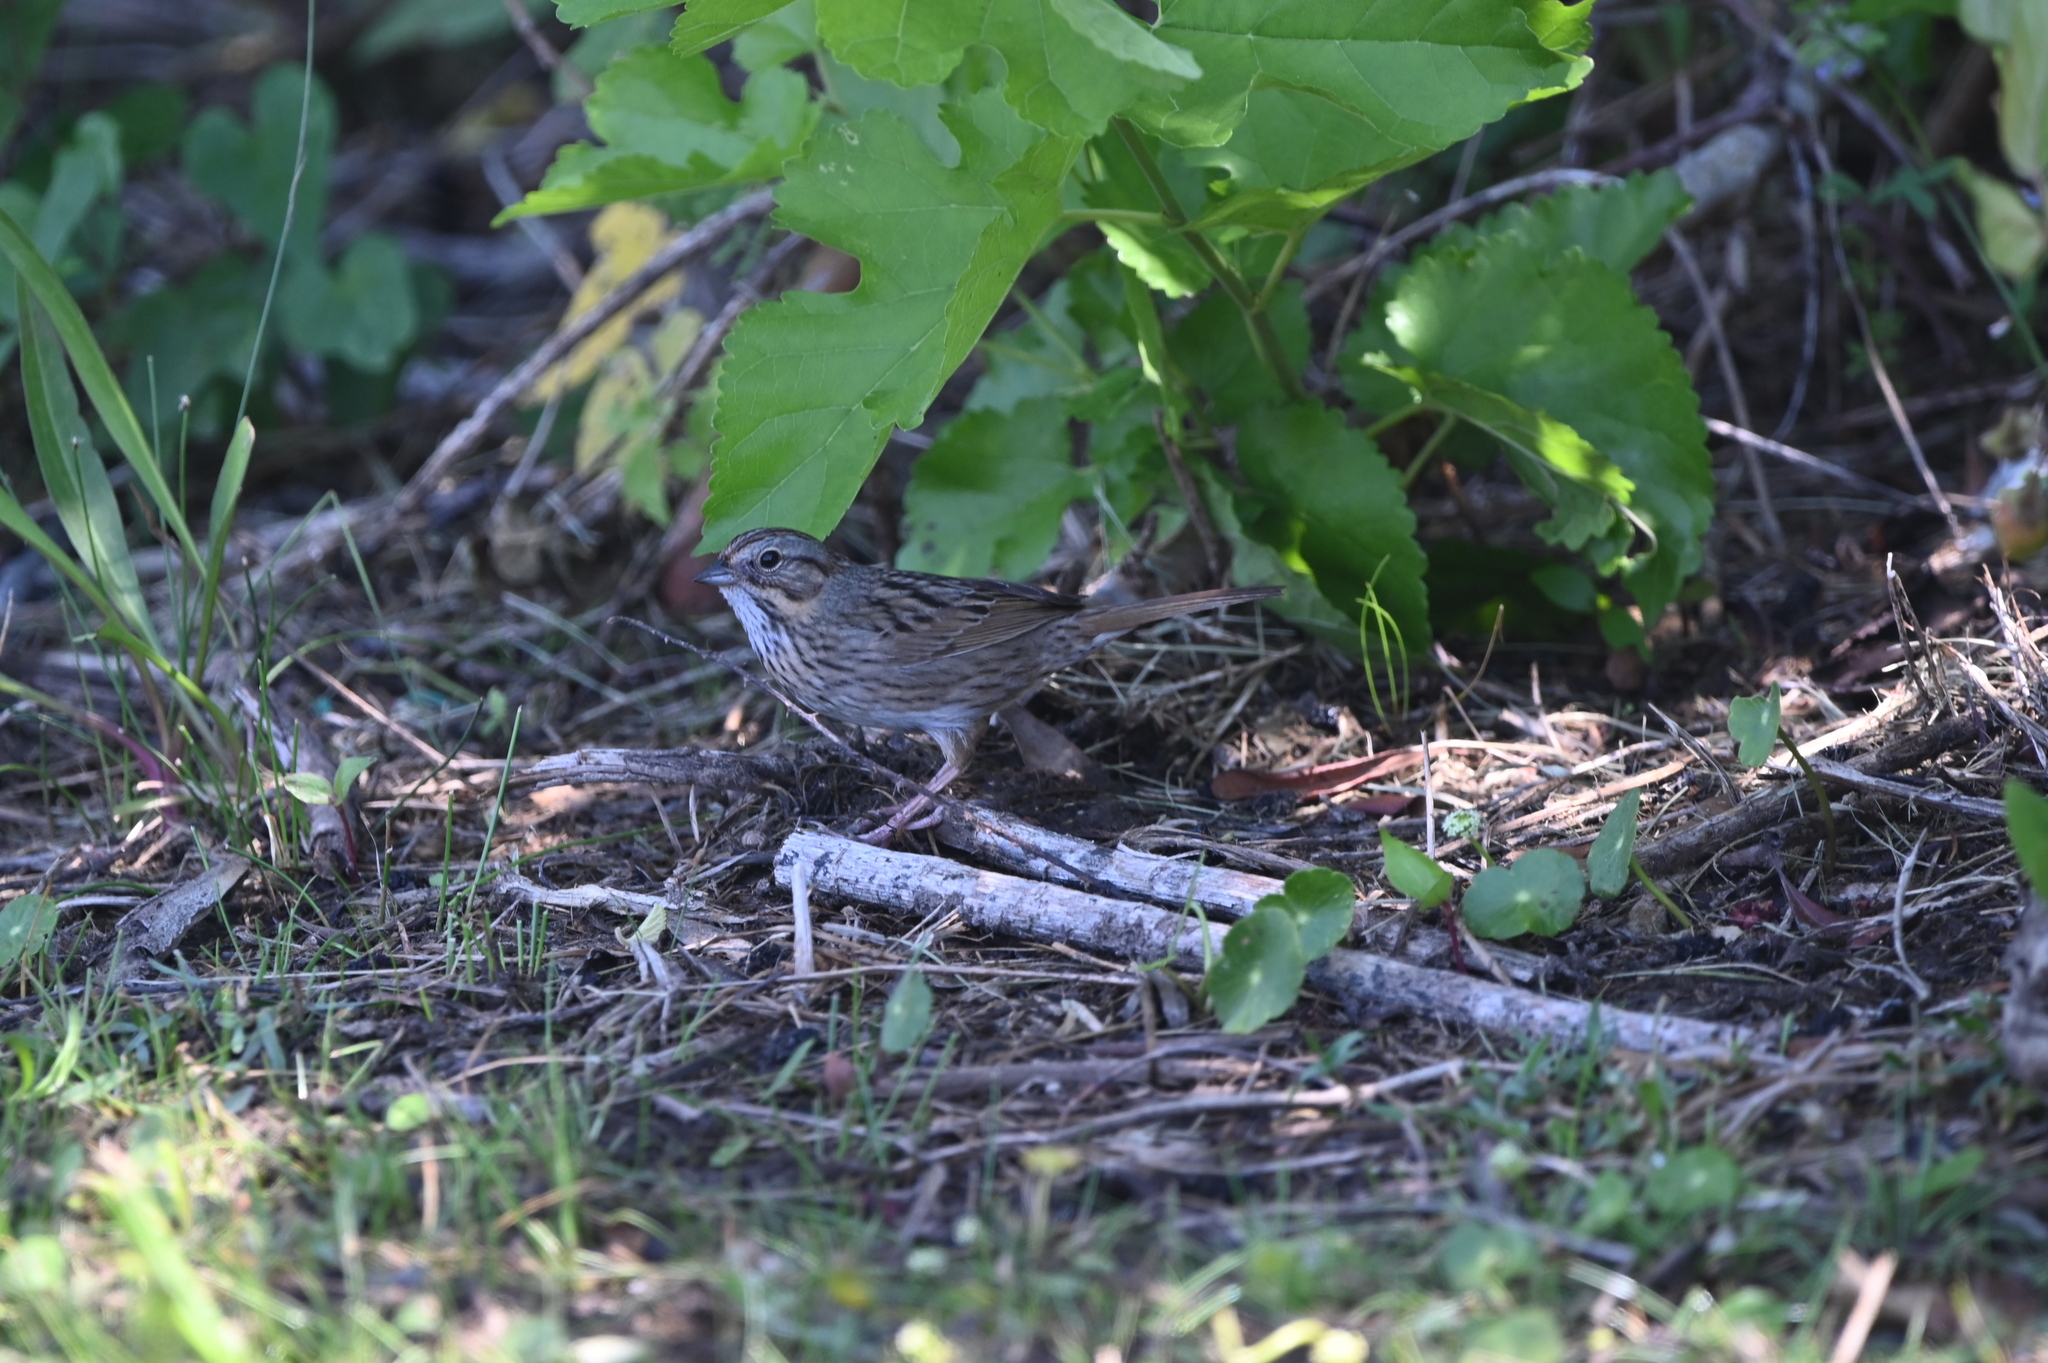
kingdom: Animalia
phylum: Chordata
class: Aves
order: Passeriformes
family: Passerellidae
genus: Melospiza
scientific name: Melospiza lincolnii
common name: Lincoln's sparrow
